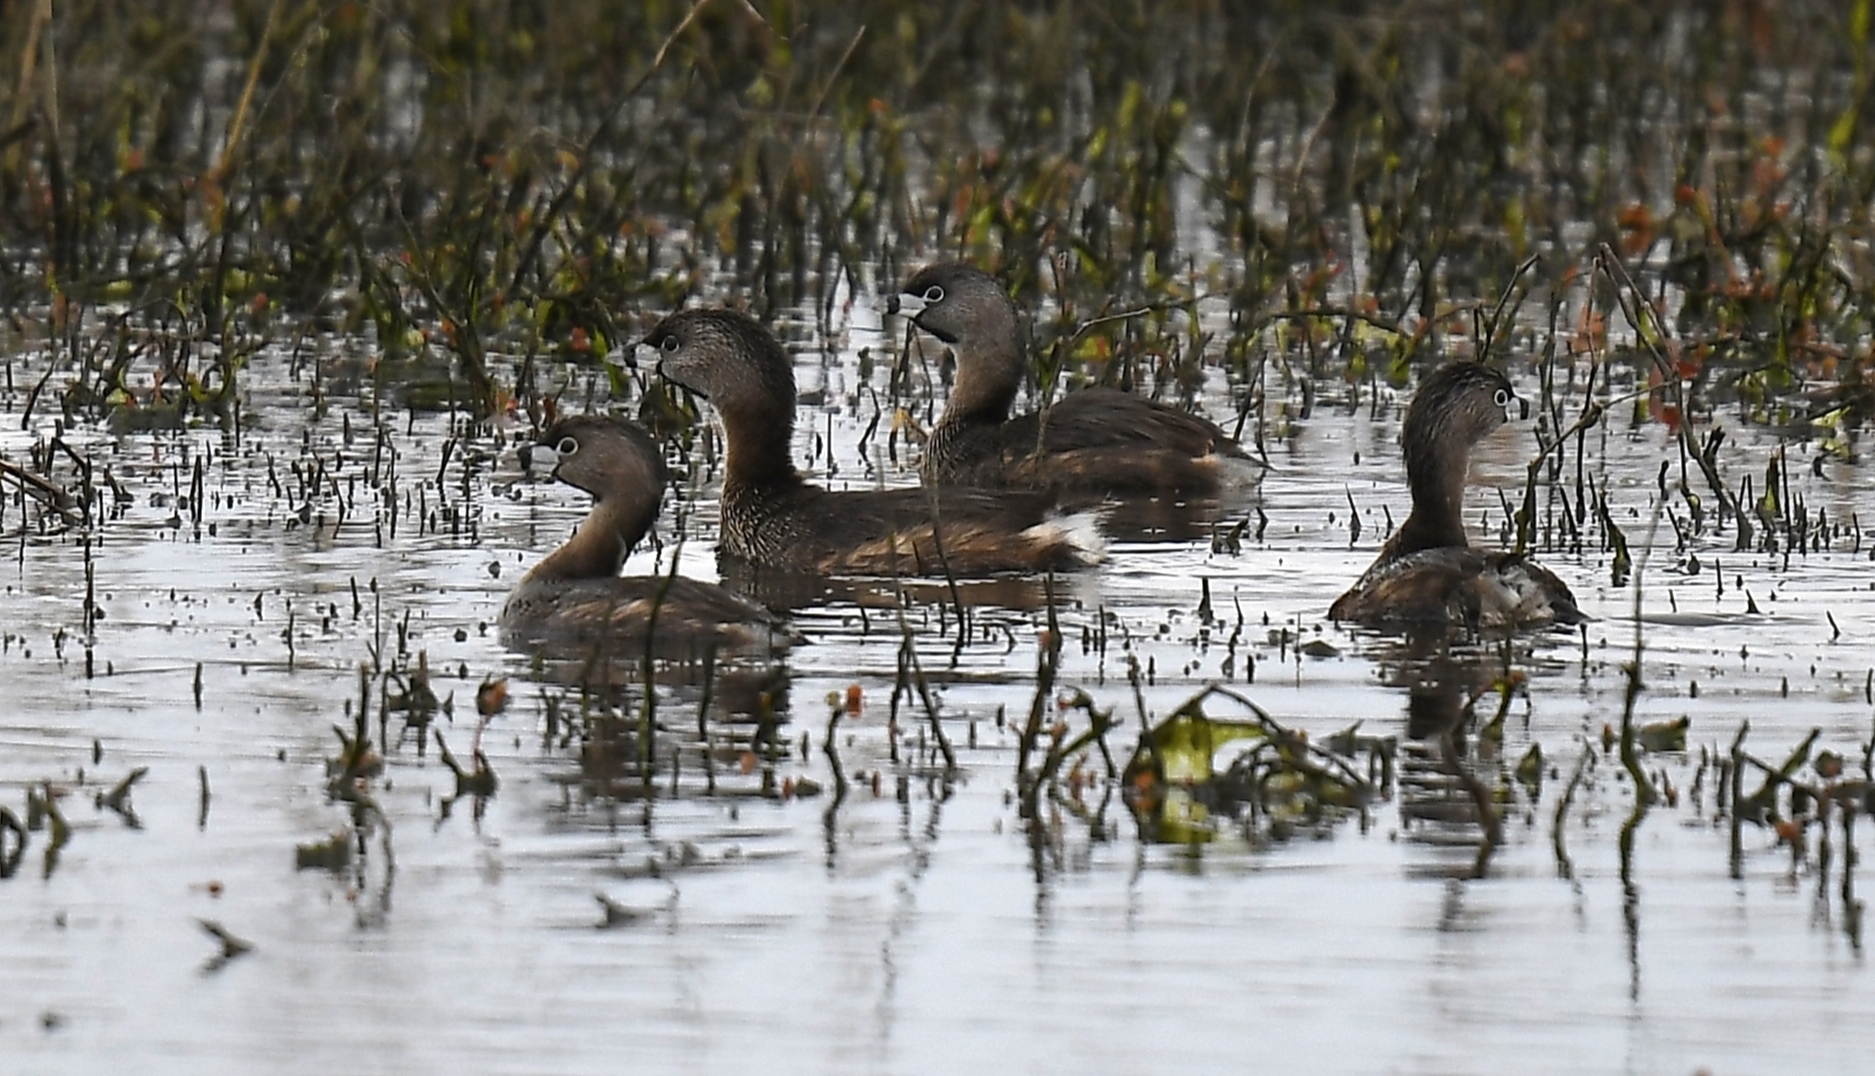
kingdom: Animalia
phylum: Chordata
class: Aves
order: Podicipediformes
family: Podicipedidae
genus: Podilymbus
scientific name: Podilymbus podiceps
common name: Pied-billed grebe
